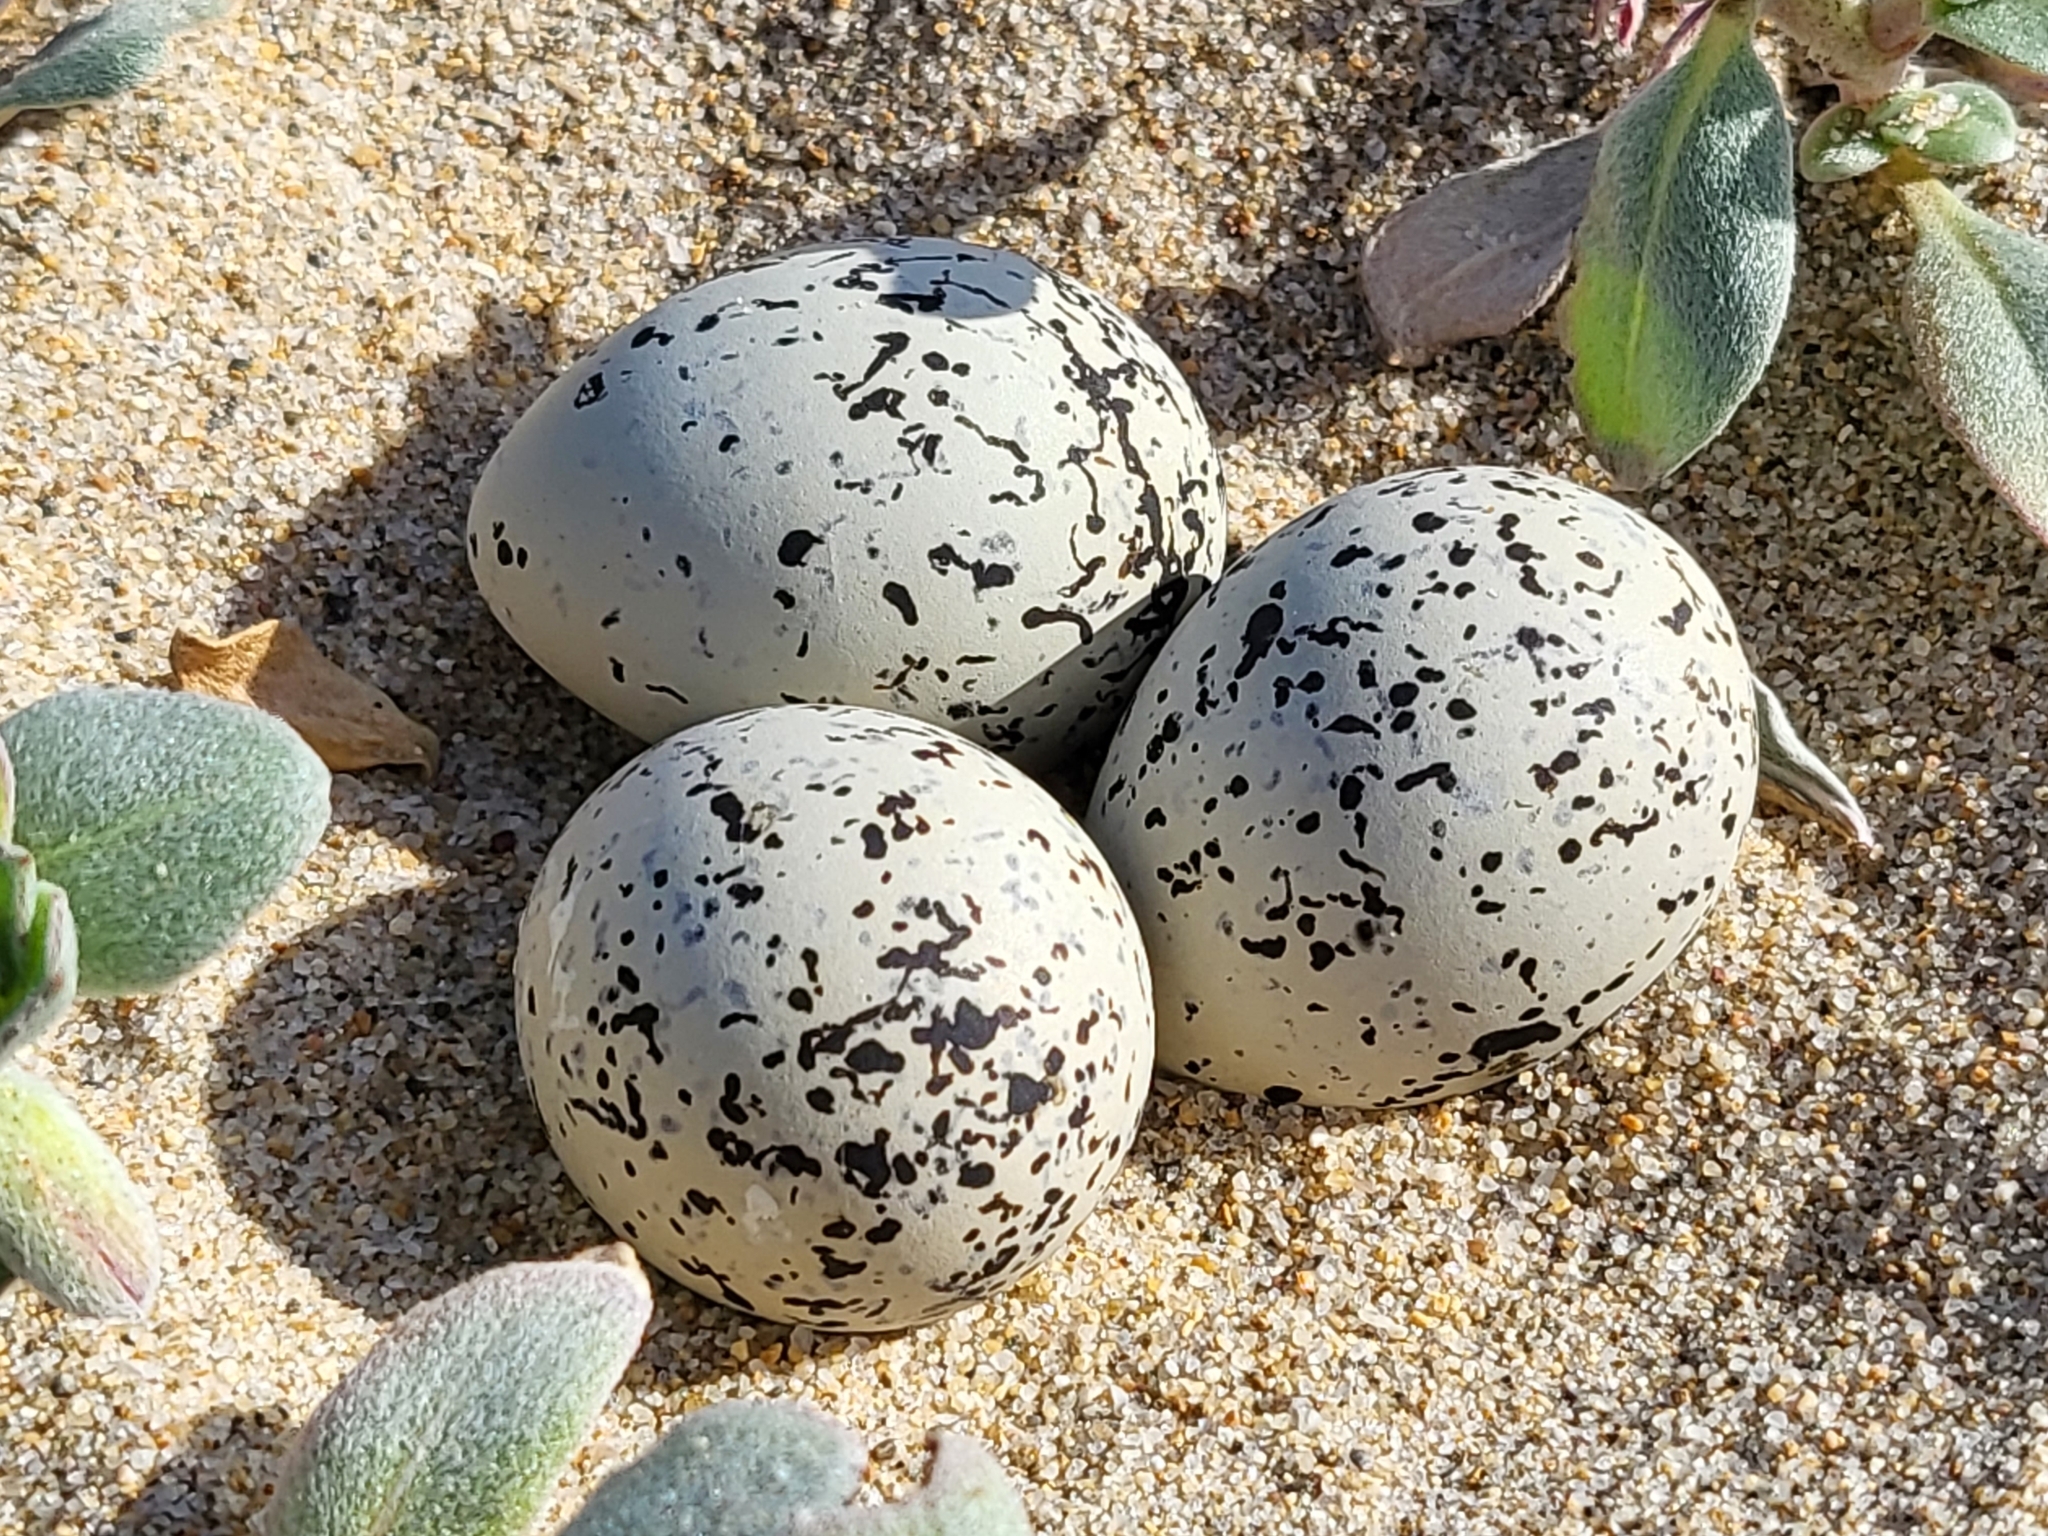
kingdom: Animalia
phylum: Chordata
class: Aves
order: Charadriiformes
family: Charadriidae
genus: Anarhynchus
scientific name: Anarhynchus
